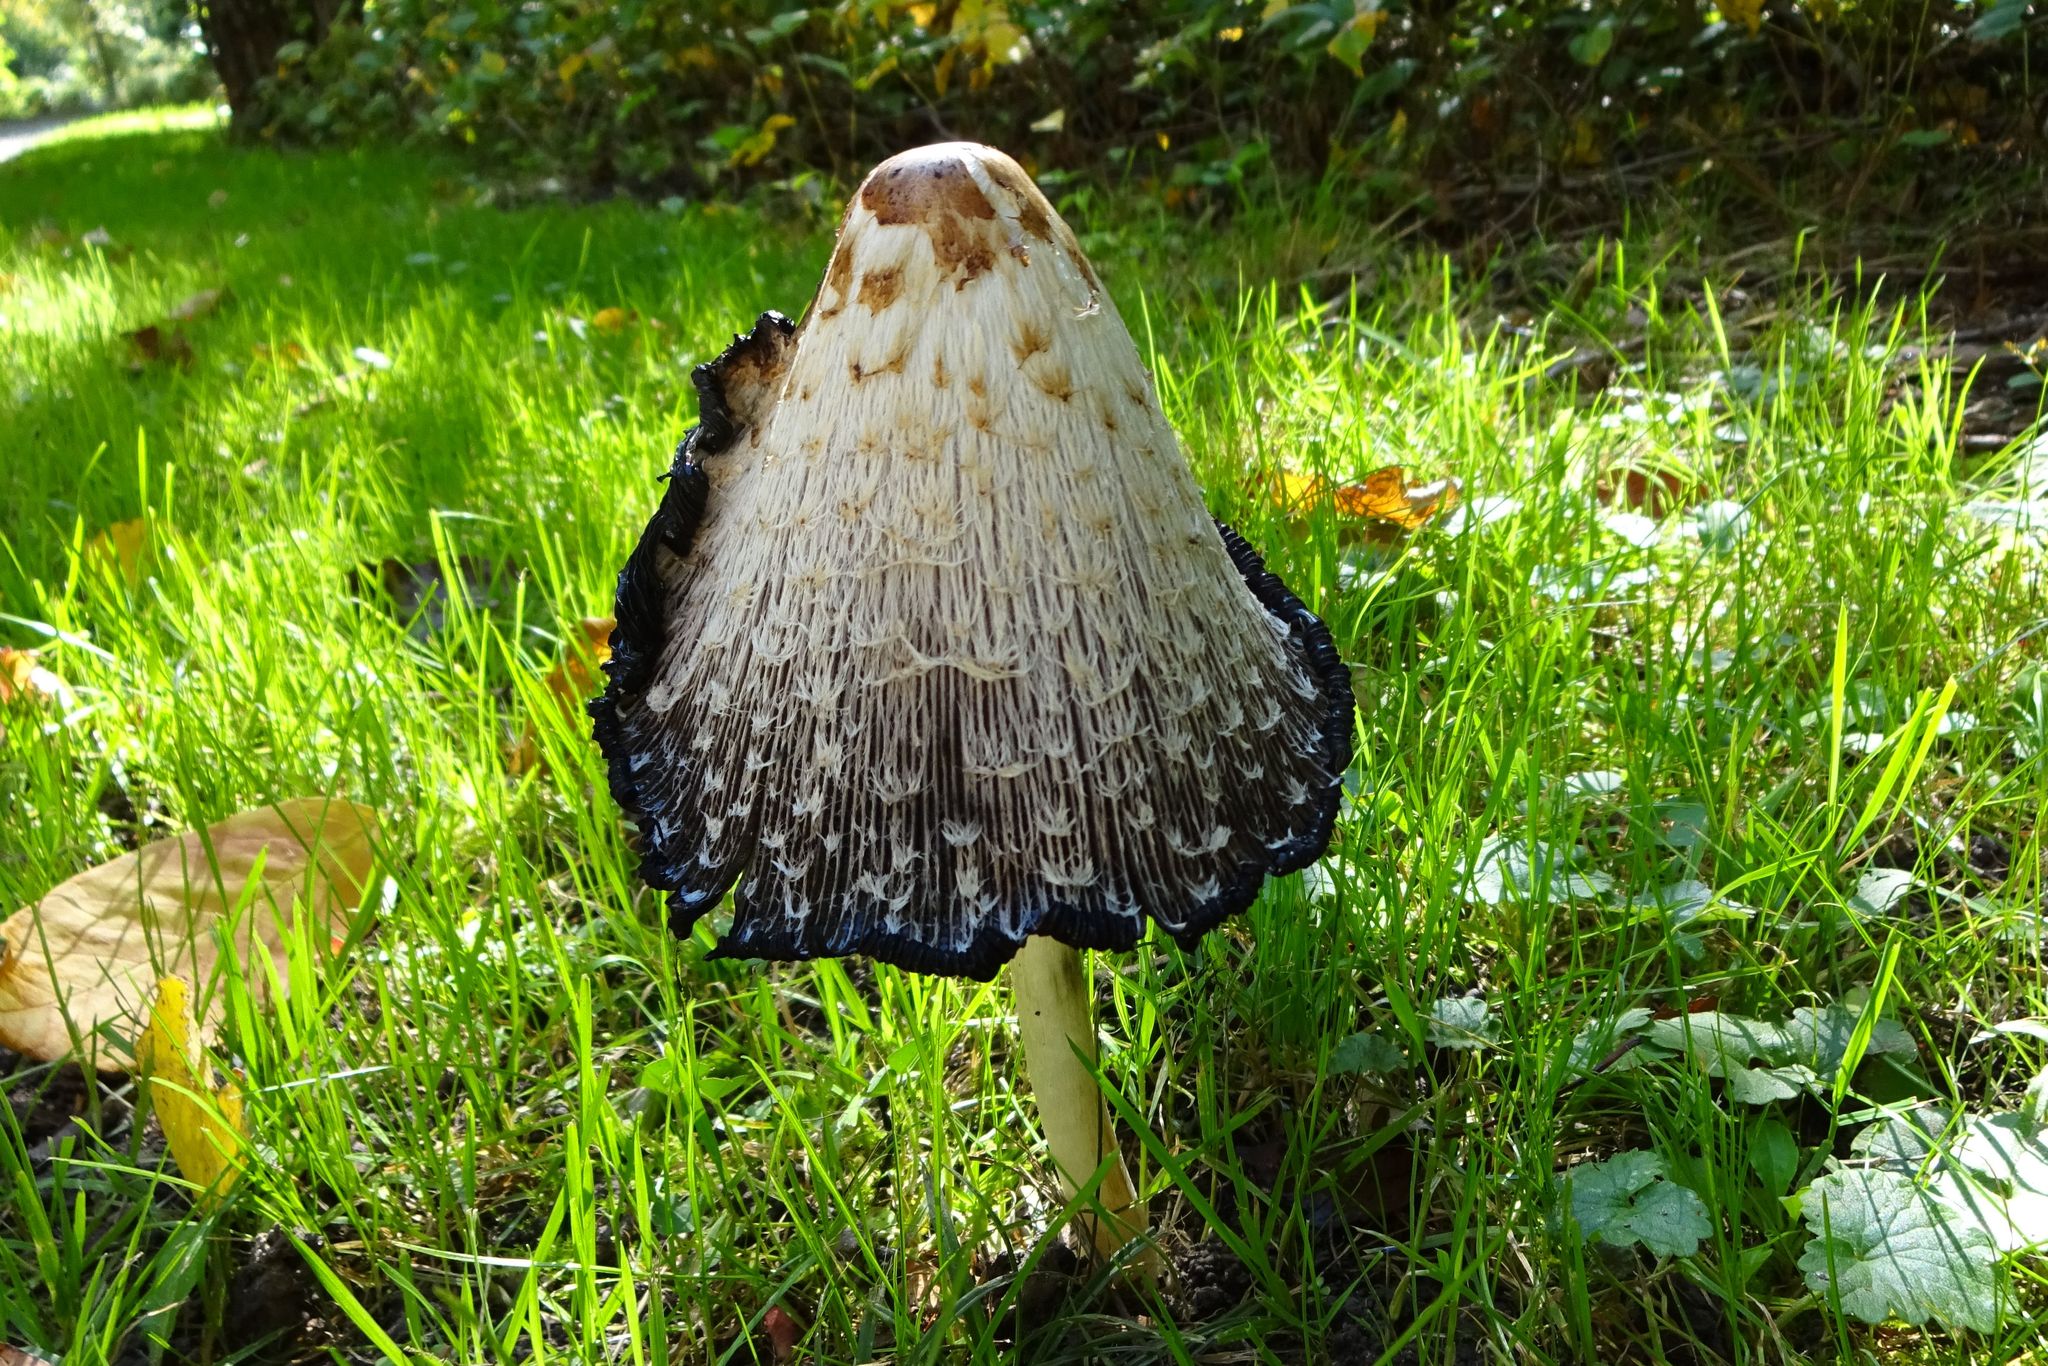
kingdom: Fungi
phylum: Basidiomycota
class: Agaricomycetes
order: Agaricales
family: Agaricaceae
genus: Coprinus
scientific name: Coprinus comatus
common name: Lawyer's wig
